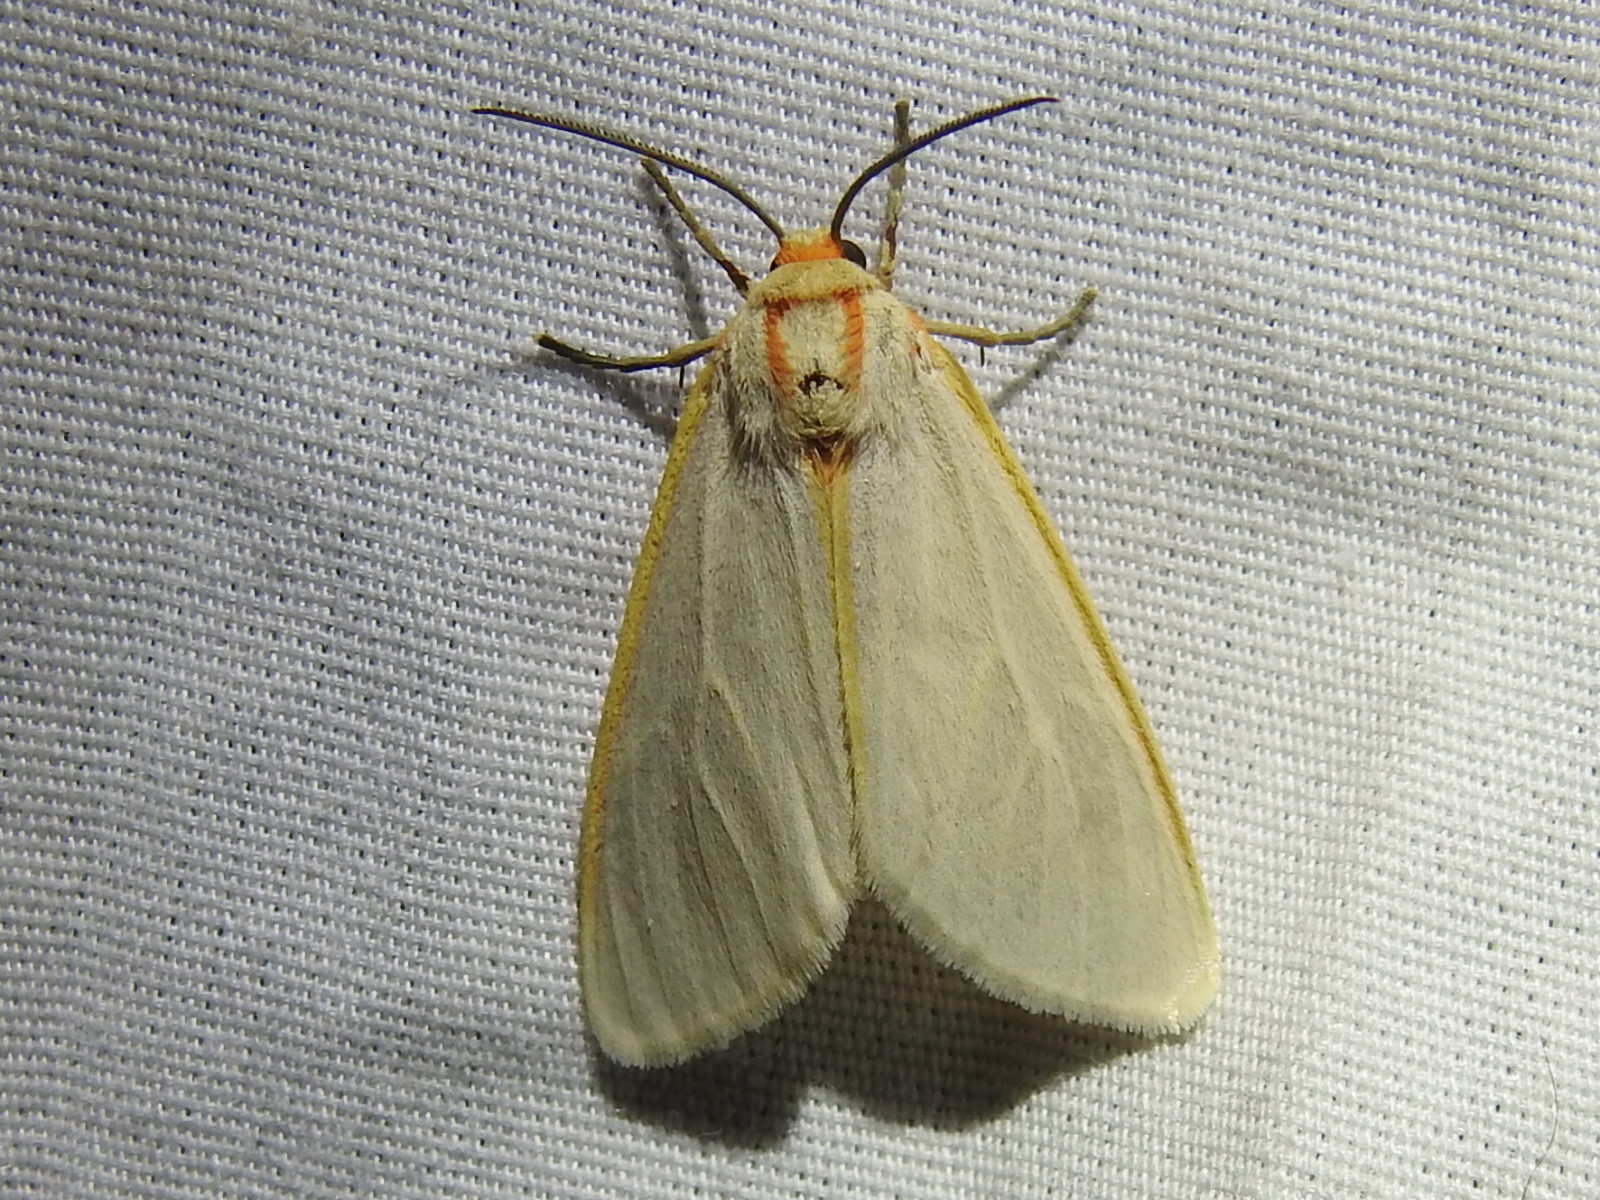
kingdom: Animalia
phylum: Arthropoda
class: Insecta
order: Lepidoptera
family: Erebidae
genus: Pygarctia
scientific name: Pygarctia abdominalis
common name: Yellow-edged pygarctia moth
